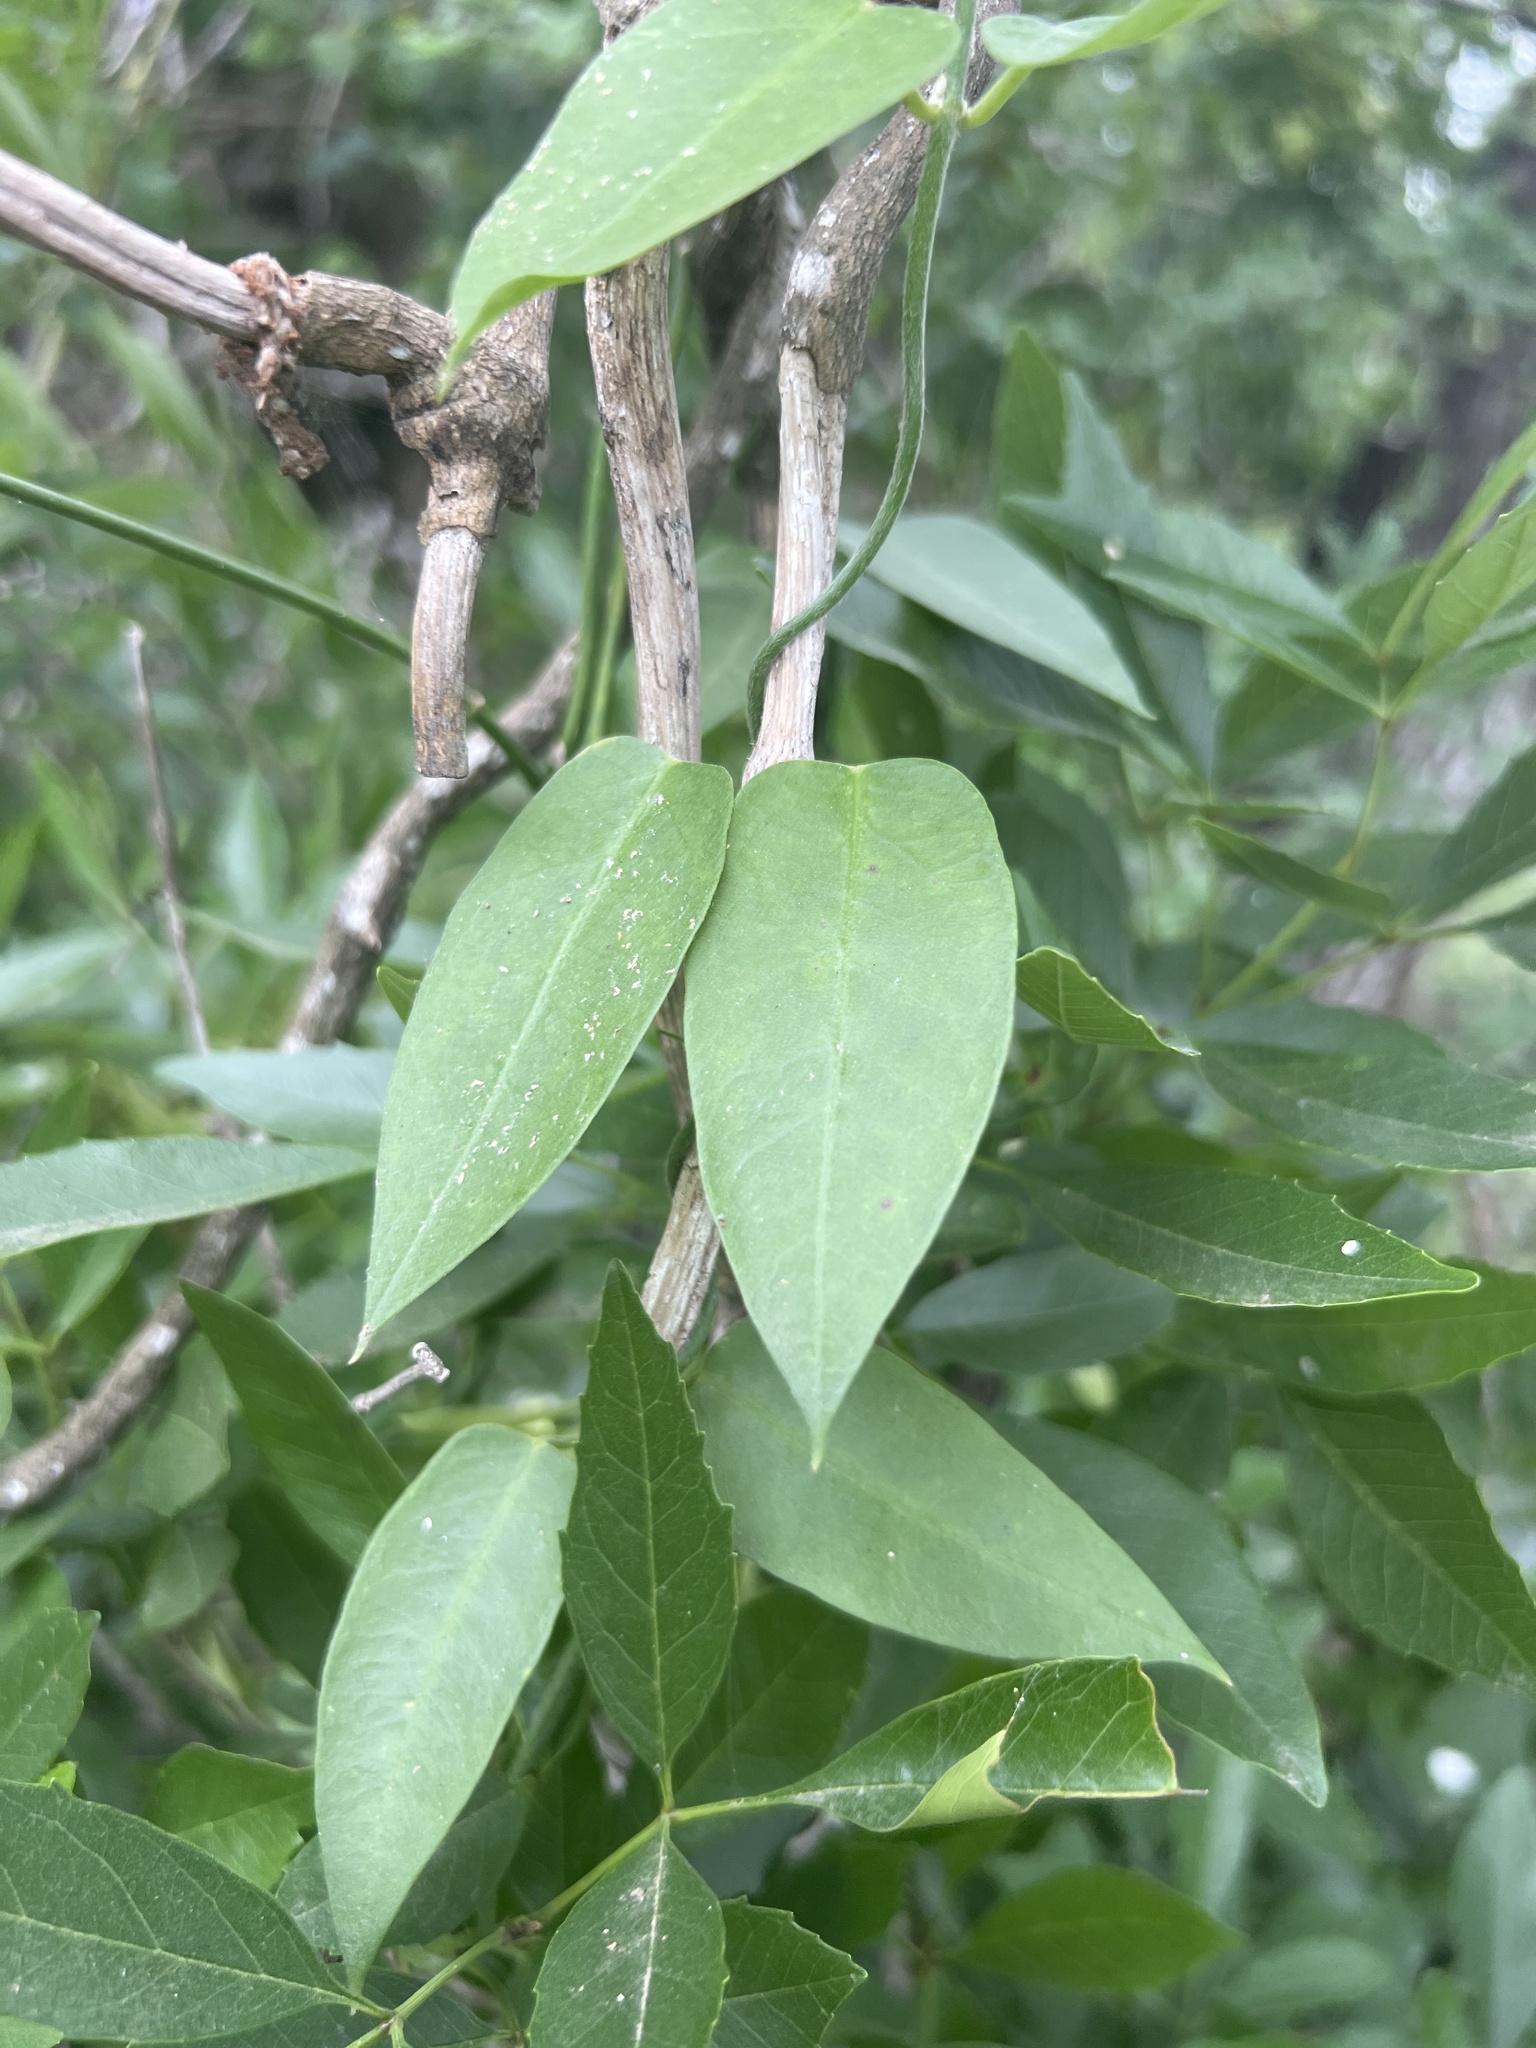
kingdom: Plantae
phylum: Tracheophyta
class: Magnoliopsida
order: Gentianales
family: Apocynaceae
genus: Funastrum
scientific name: Funastrum clausum
